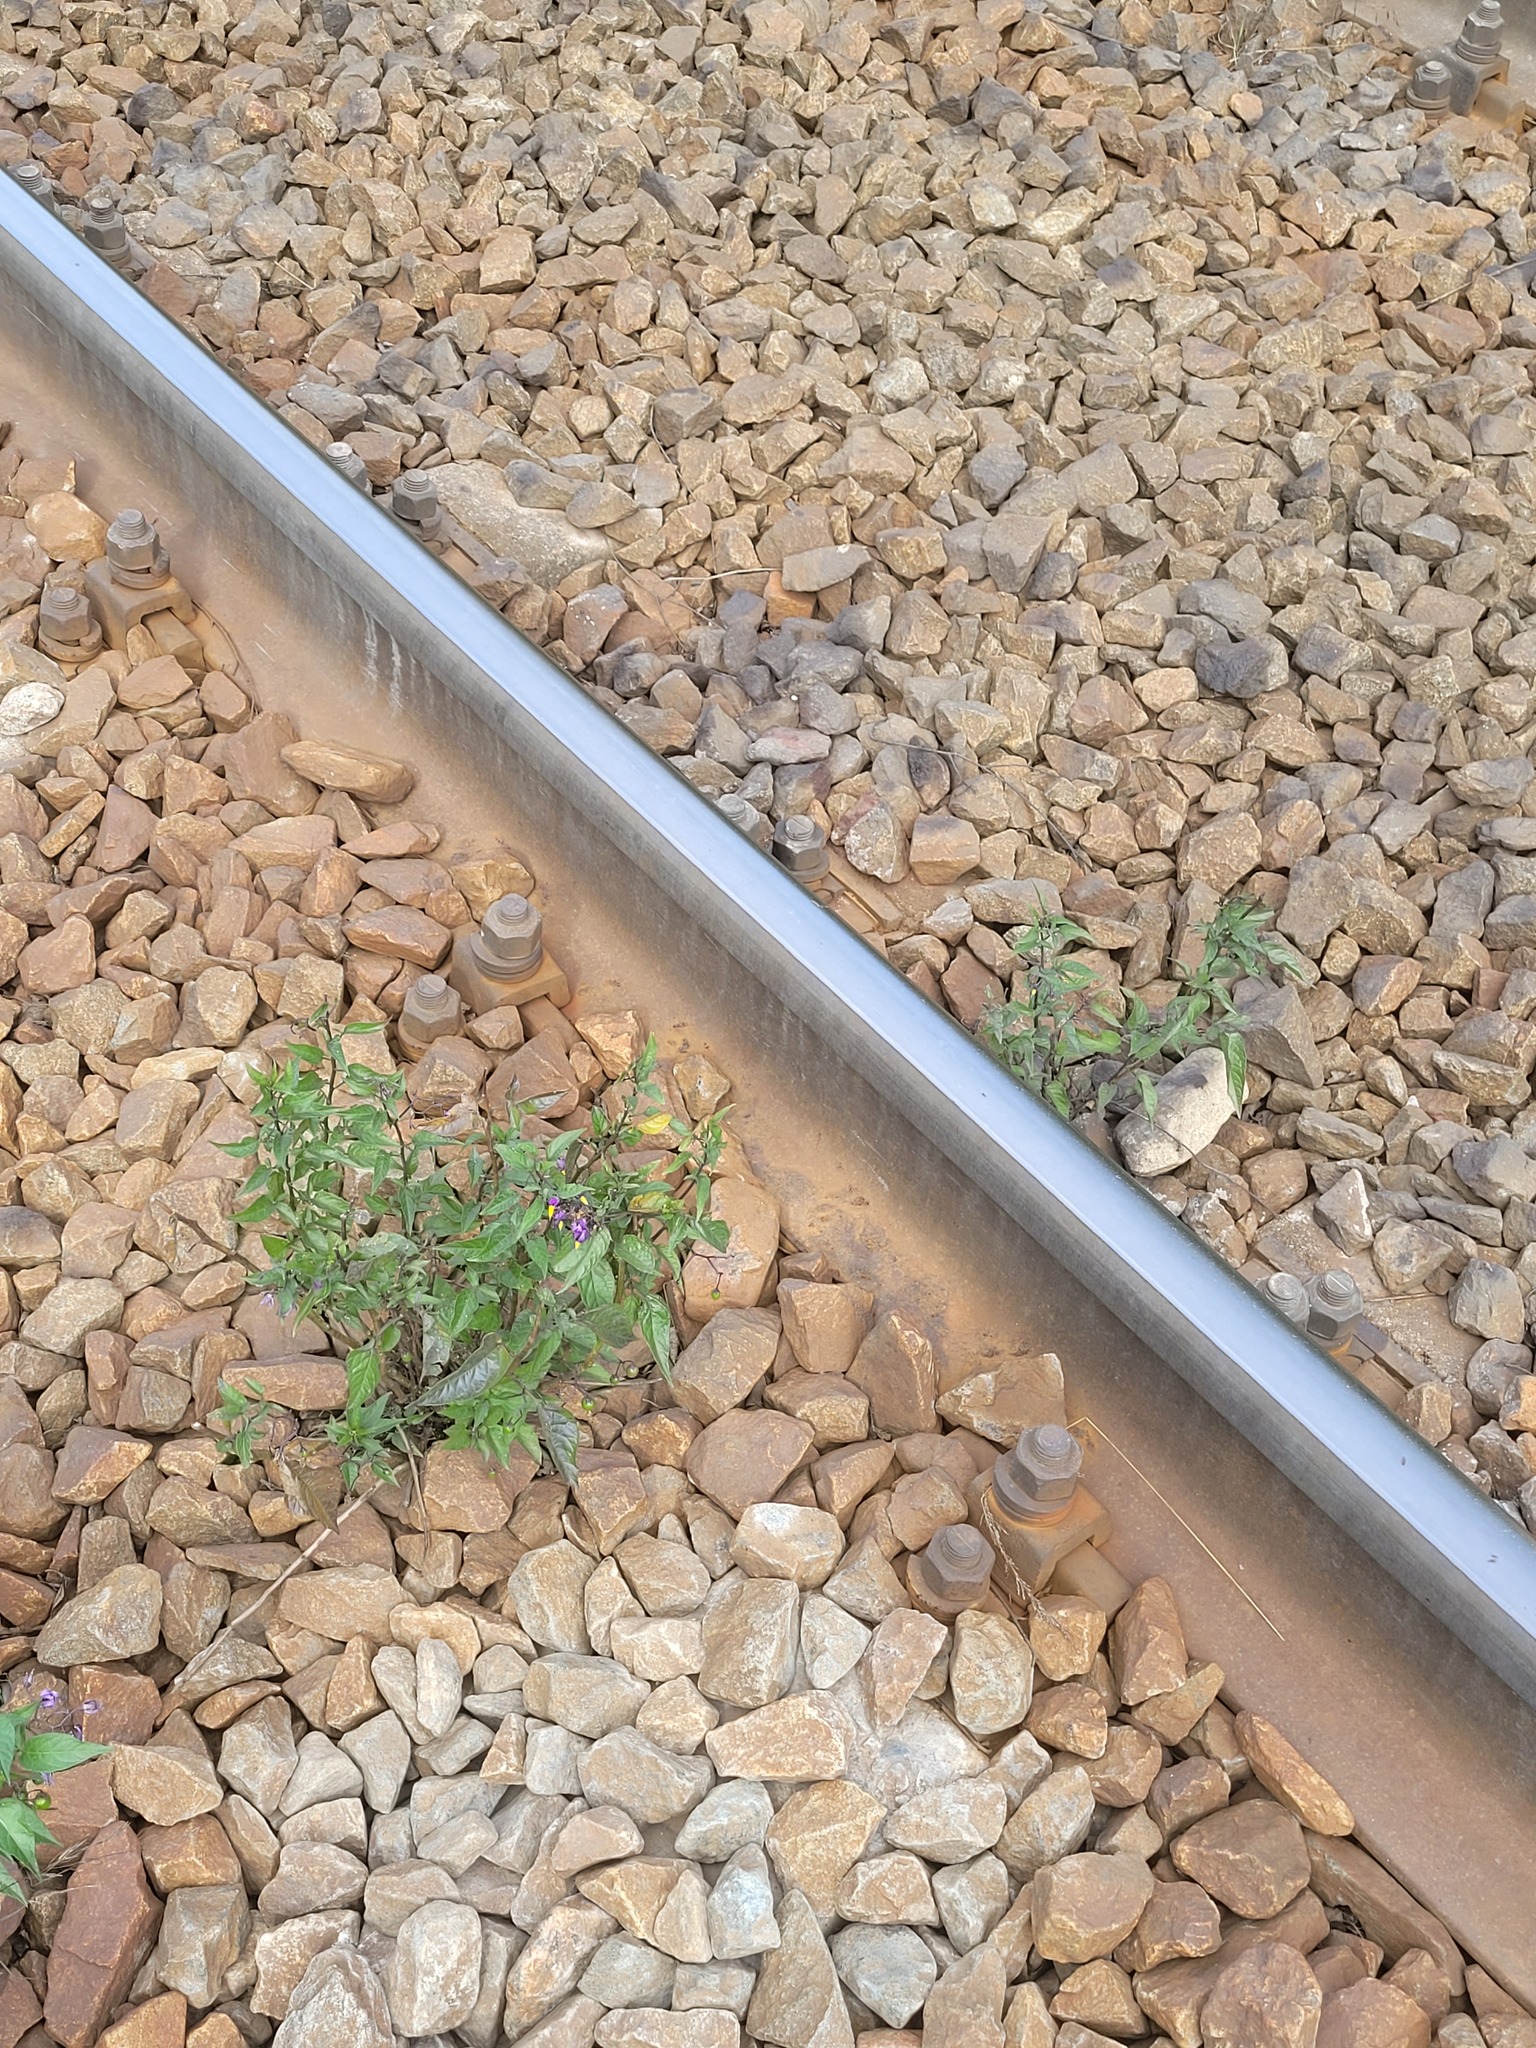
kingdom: Plantae
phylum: Tracheophyta
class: Magnoliopsida
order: Solanales
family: Solanaceae
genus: Solanum
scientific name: Solanum dulcamara
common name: Climbing nightshade
